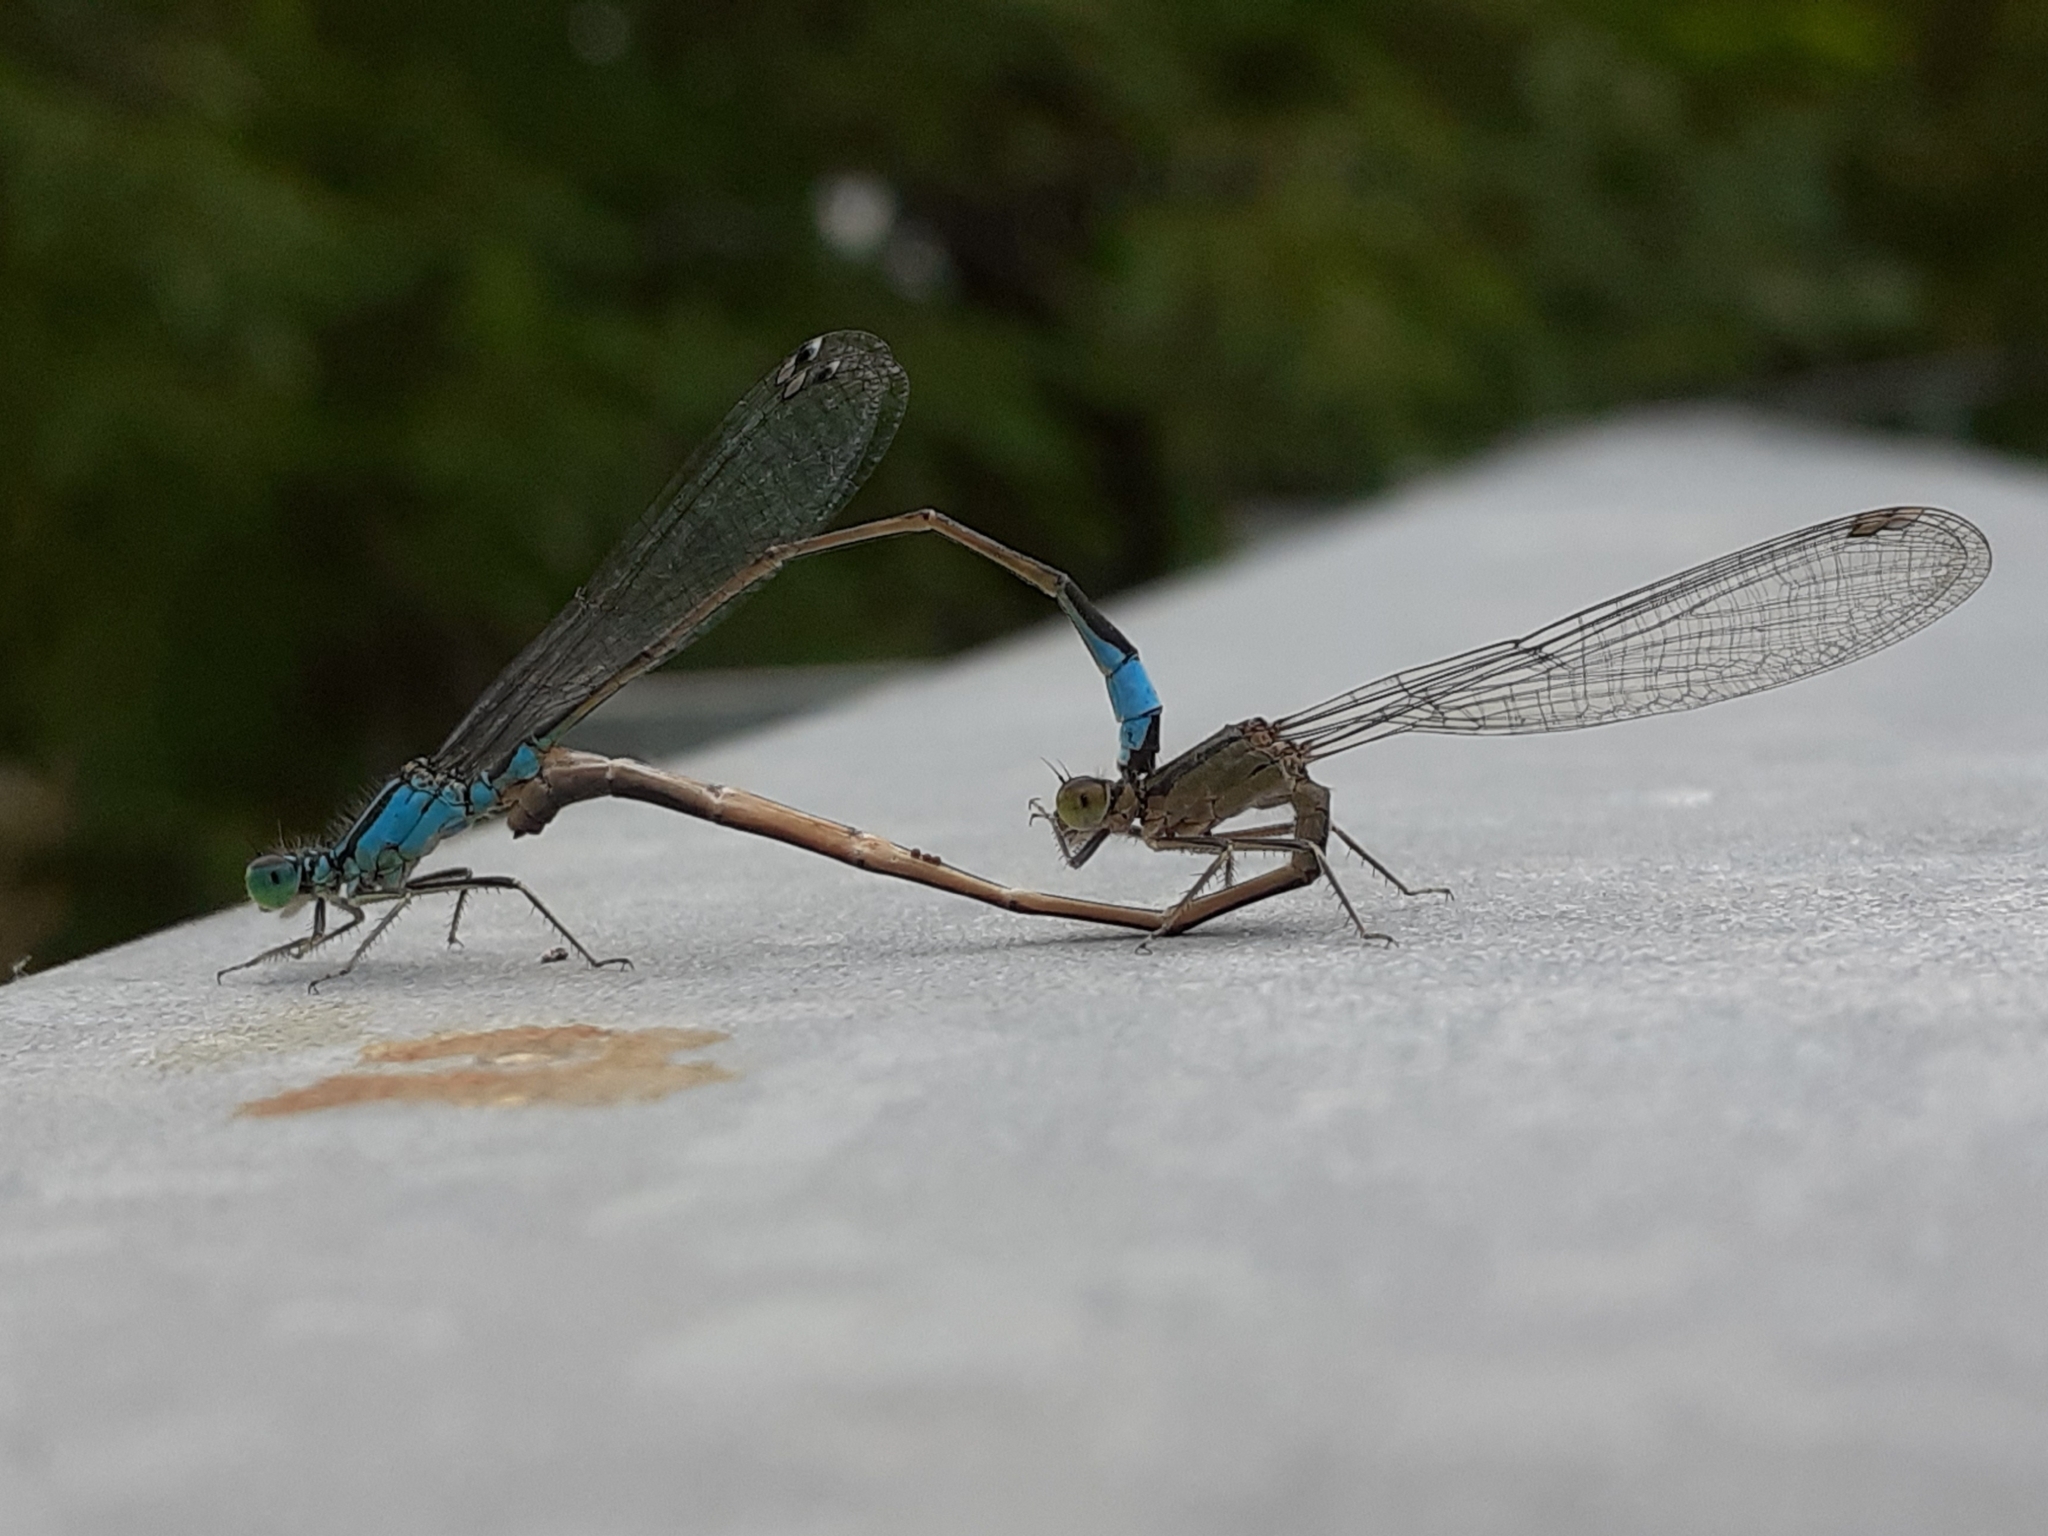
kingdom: Animalia
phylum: Arthropoda
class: Insecta
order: Odonata
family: Coenagrionidae
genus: Ischnura
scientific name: Ischnura elegans
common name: Blue-tailed damselfly
